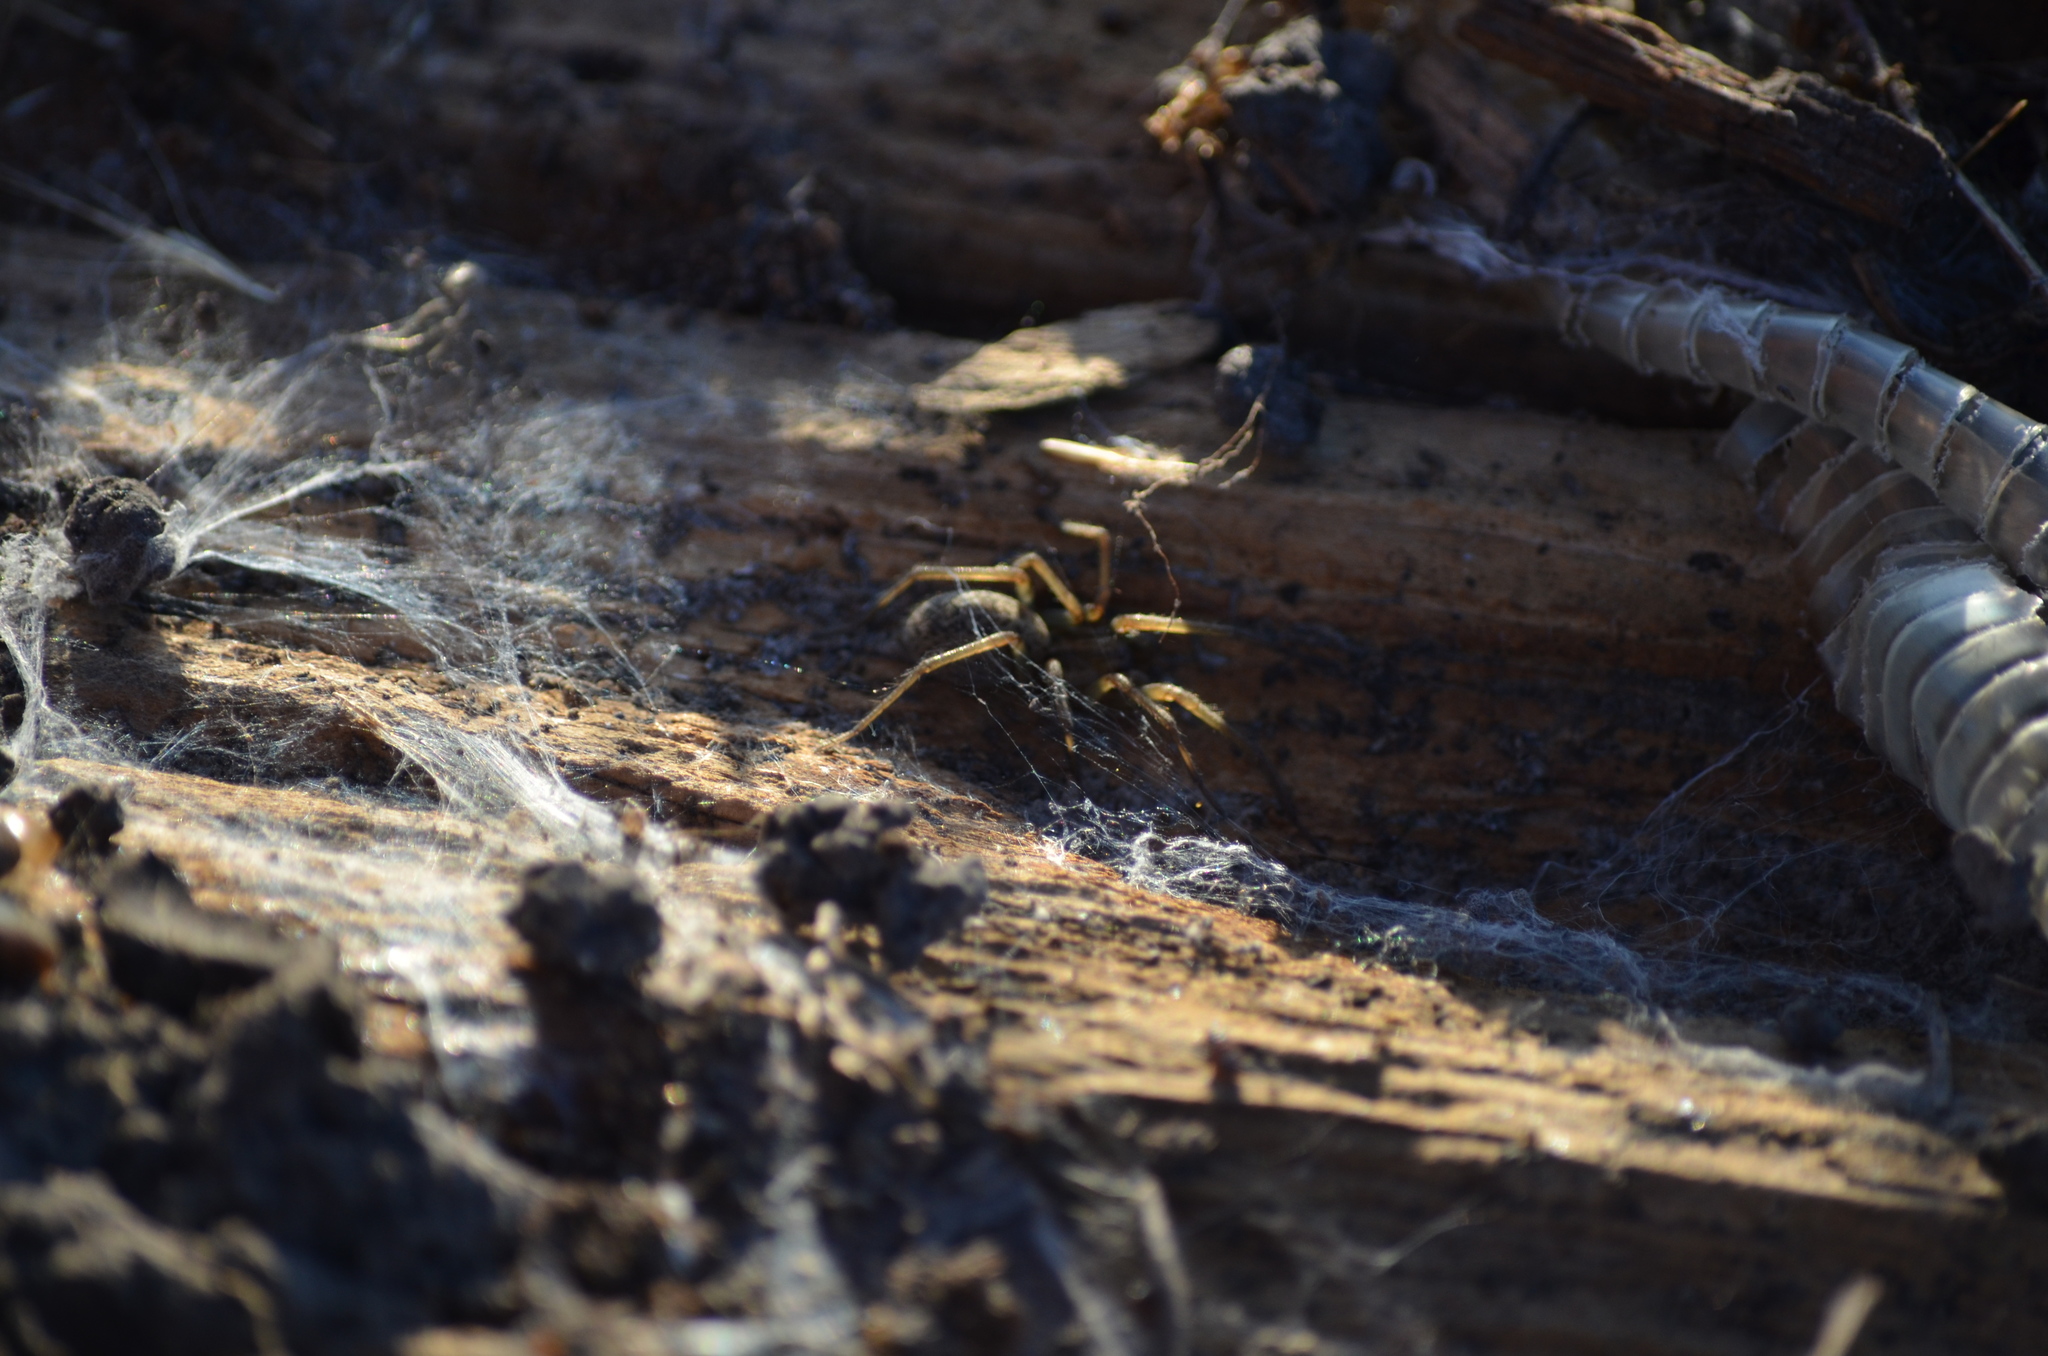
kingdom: Animalia
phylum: Arthropoda
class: Arachnida
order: Araneae
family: Agelenidae
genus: Eratigena
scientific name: Eratigena agrestis
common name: Hobo spider
